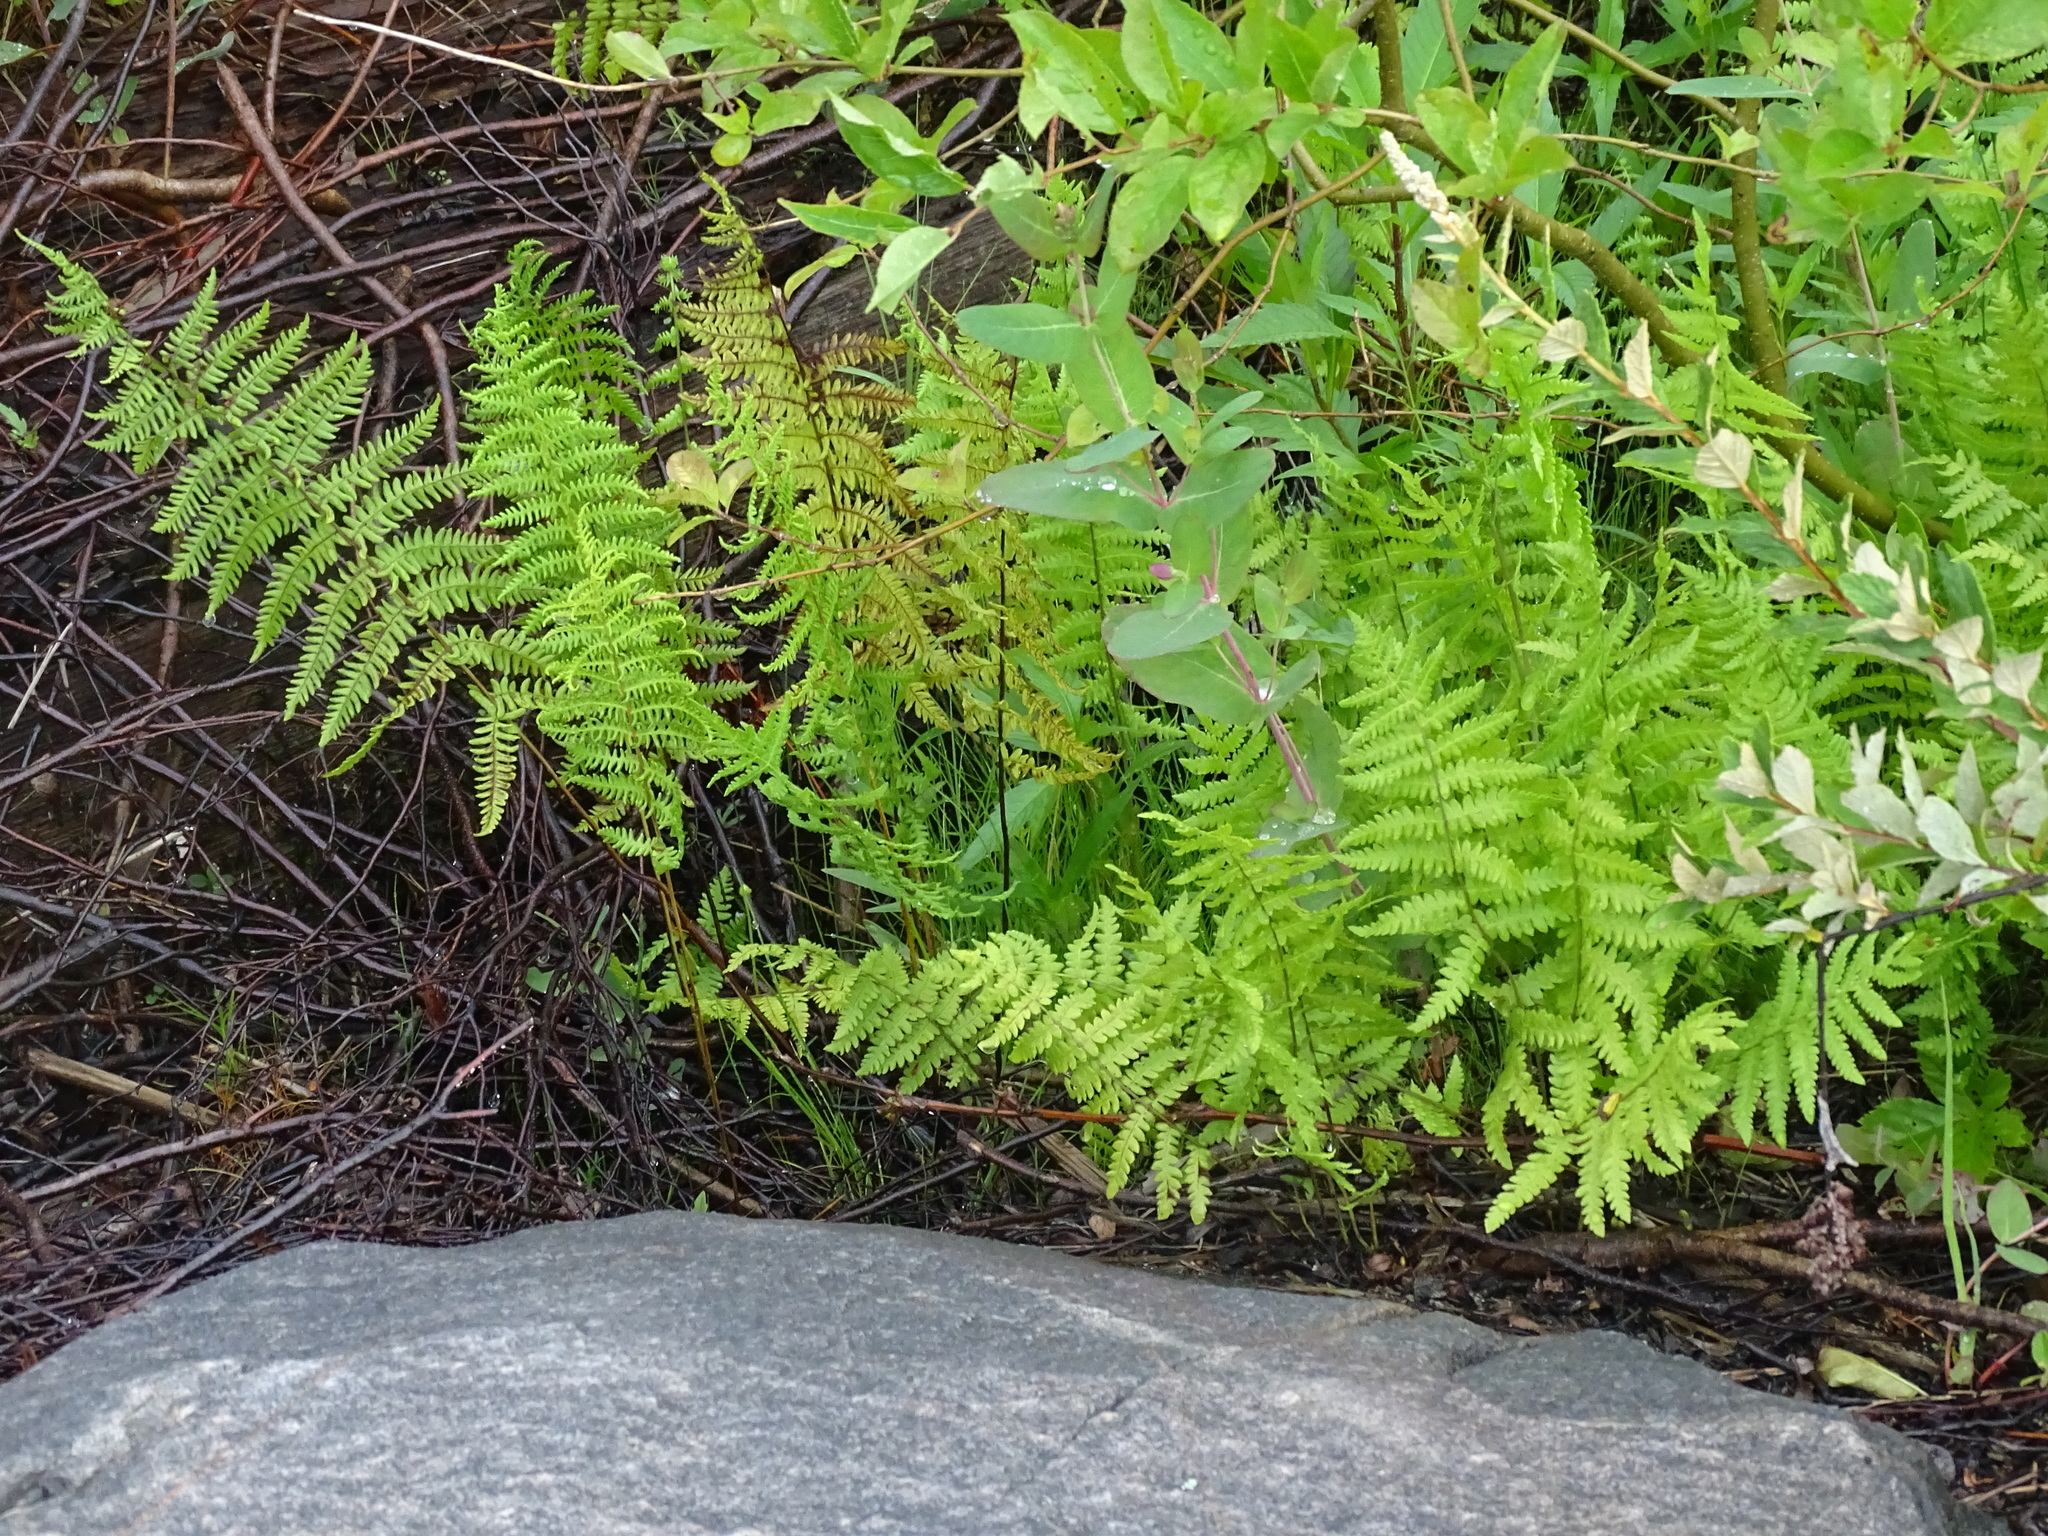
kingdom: Plantae
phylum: Tracheophyta
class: Polypodiopsida
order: Polypodiales
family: Thelypteridaceae
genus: Thelypteris
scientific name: Thelypteris palustris
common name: Marsh fern
